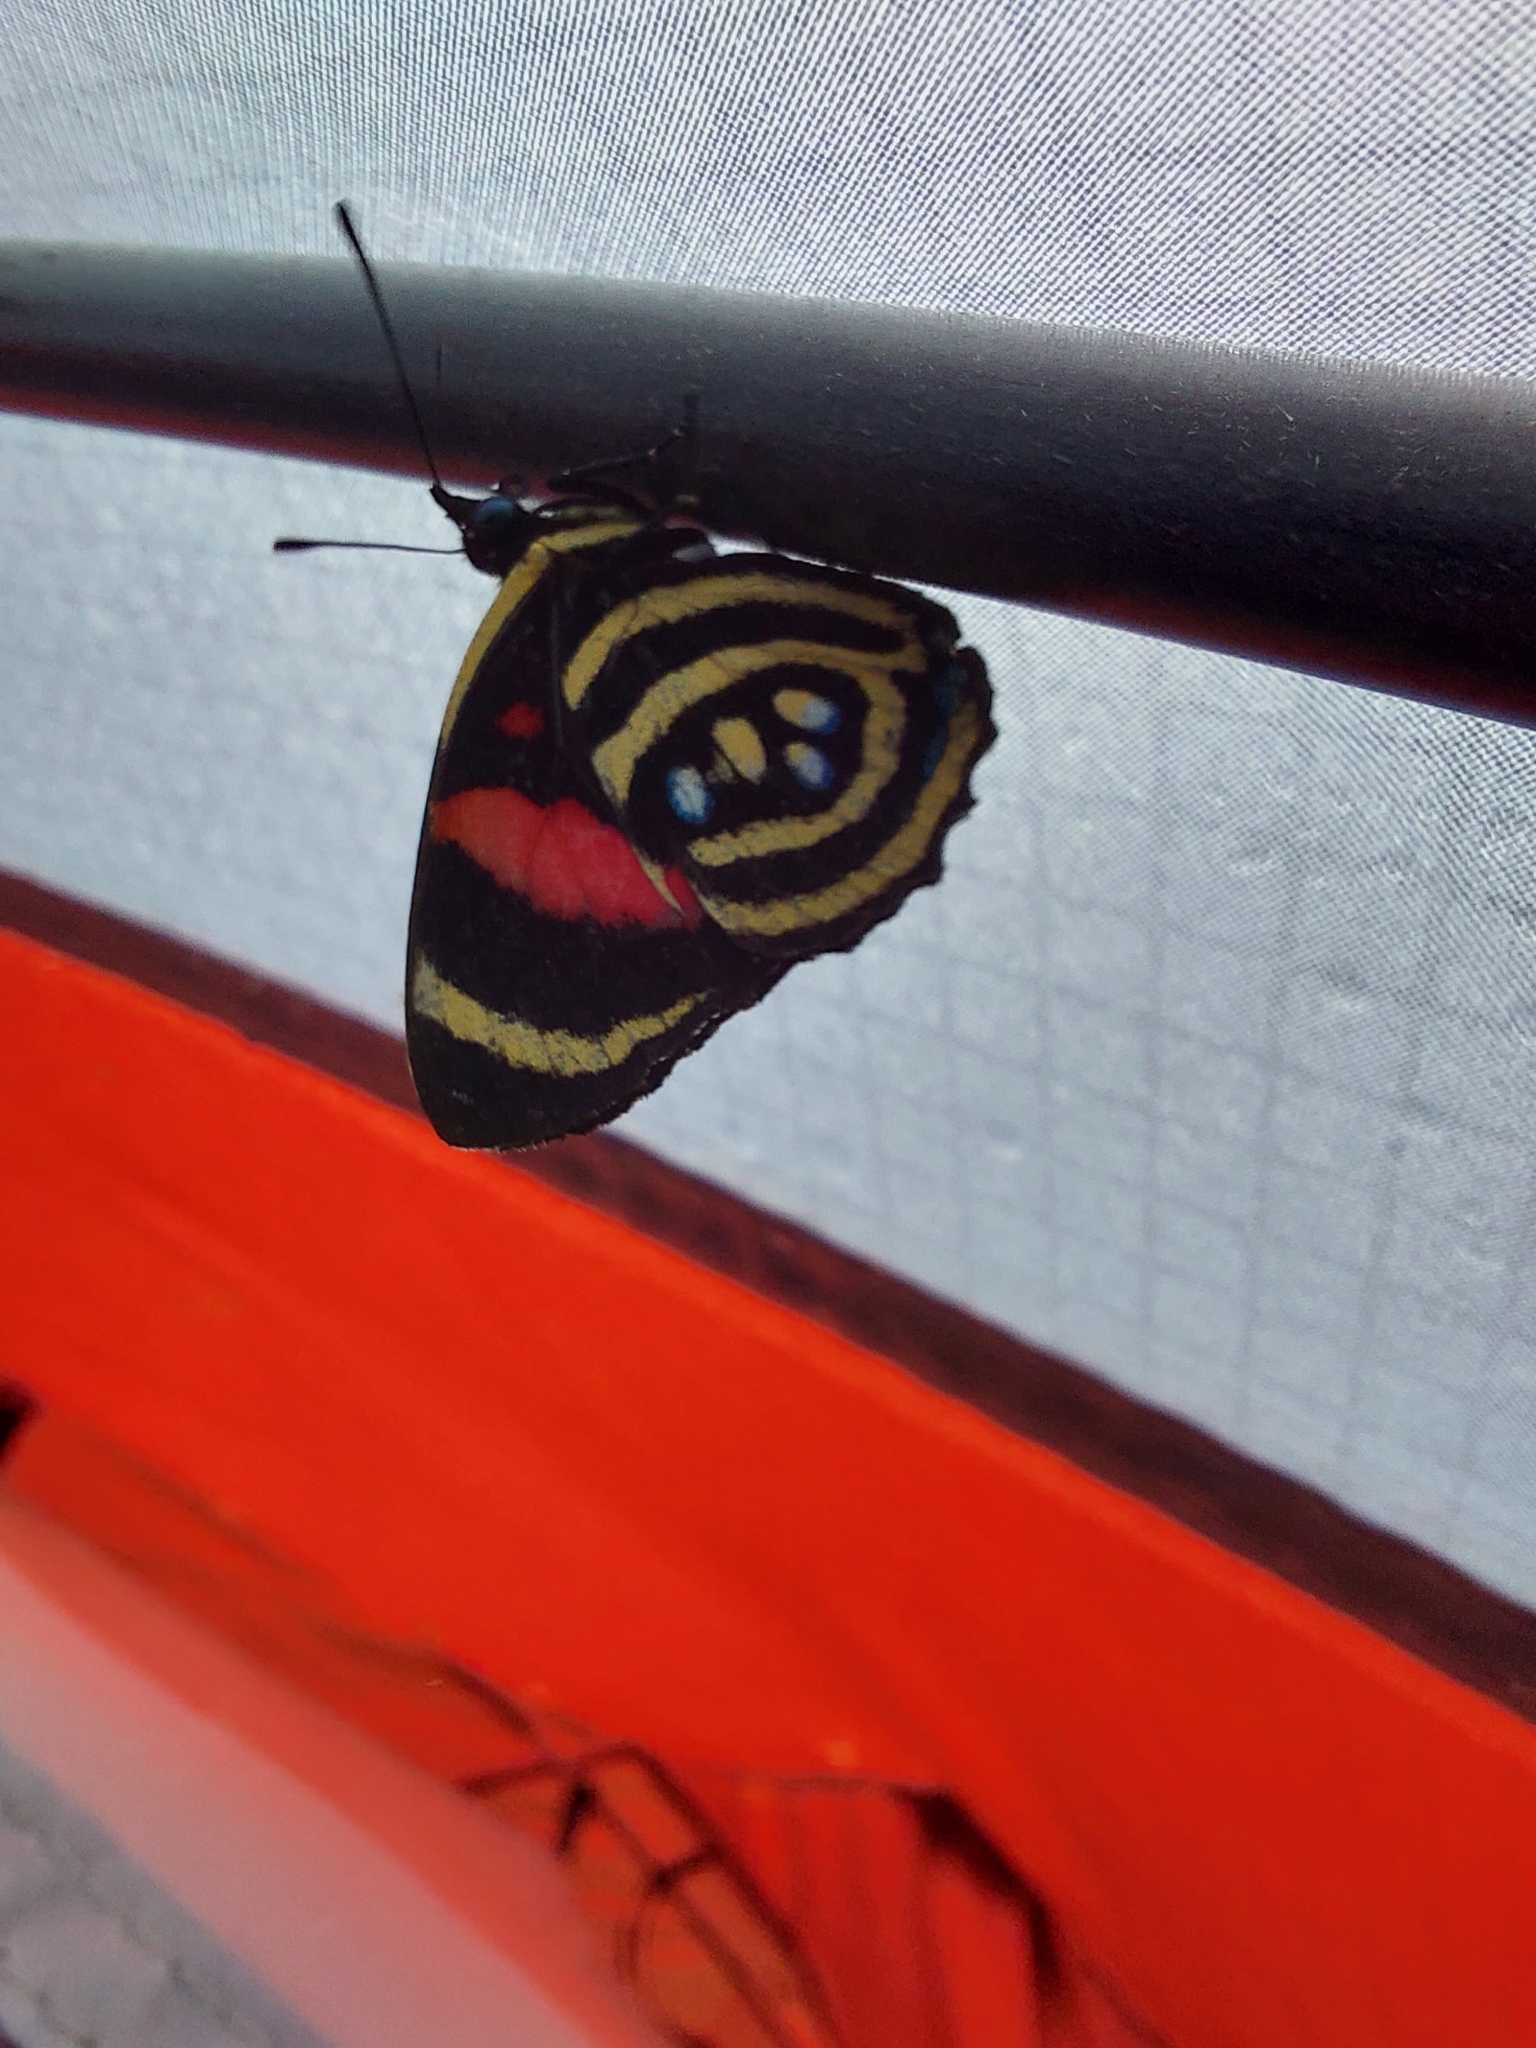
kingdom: Animalia
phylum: Arthropoda
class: Insecta
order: Lepidoptera
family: Nymphalidae
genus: Catagramma
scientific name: Catagramma Callicore hydaspes
